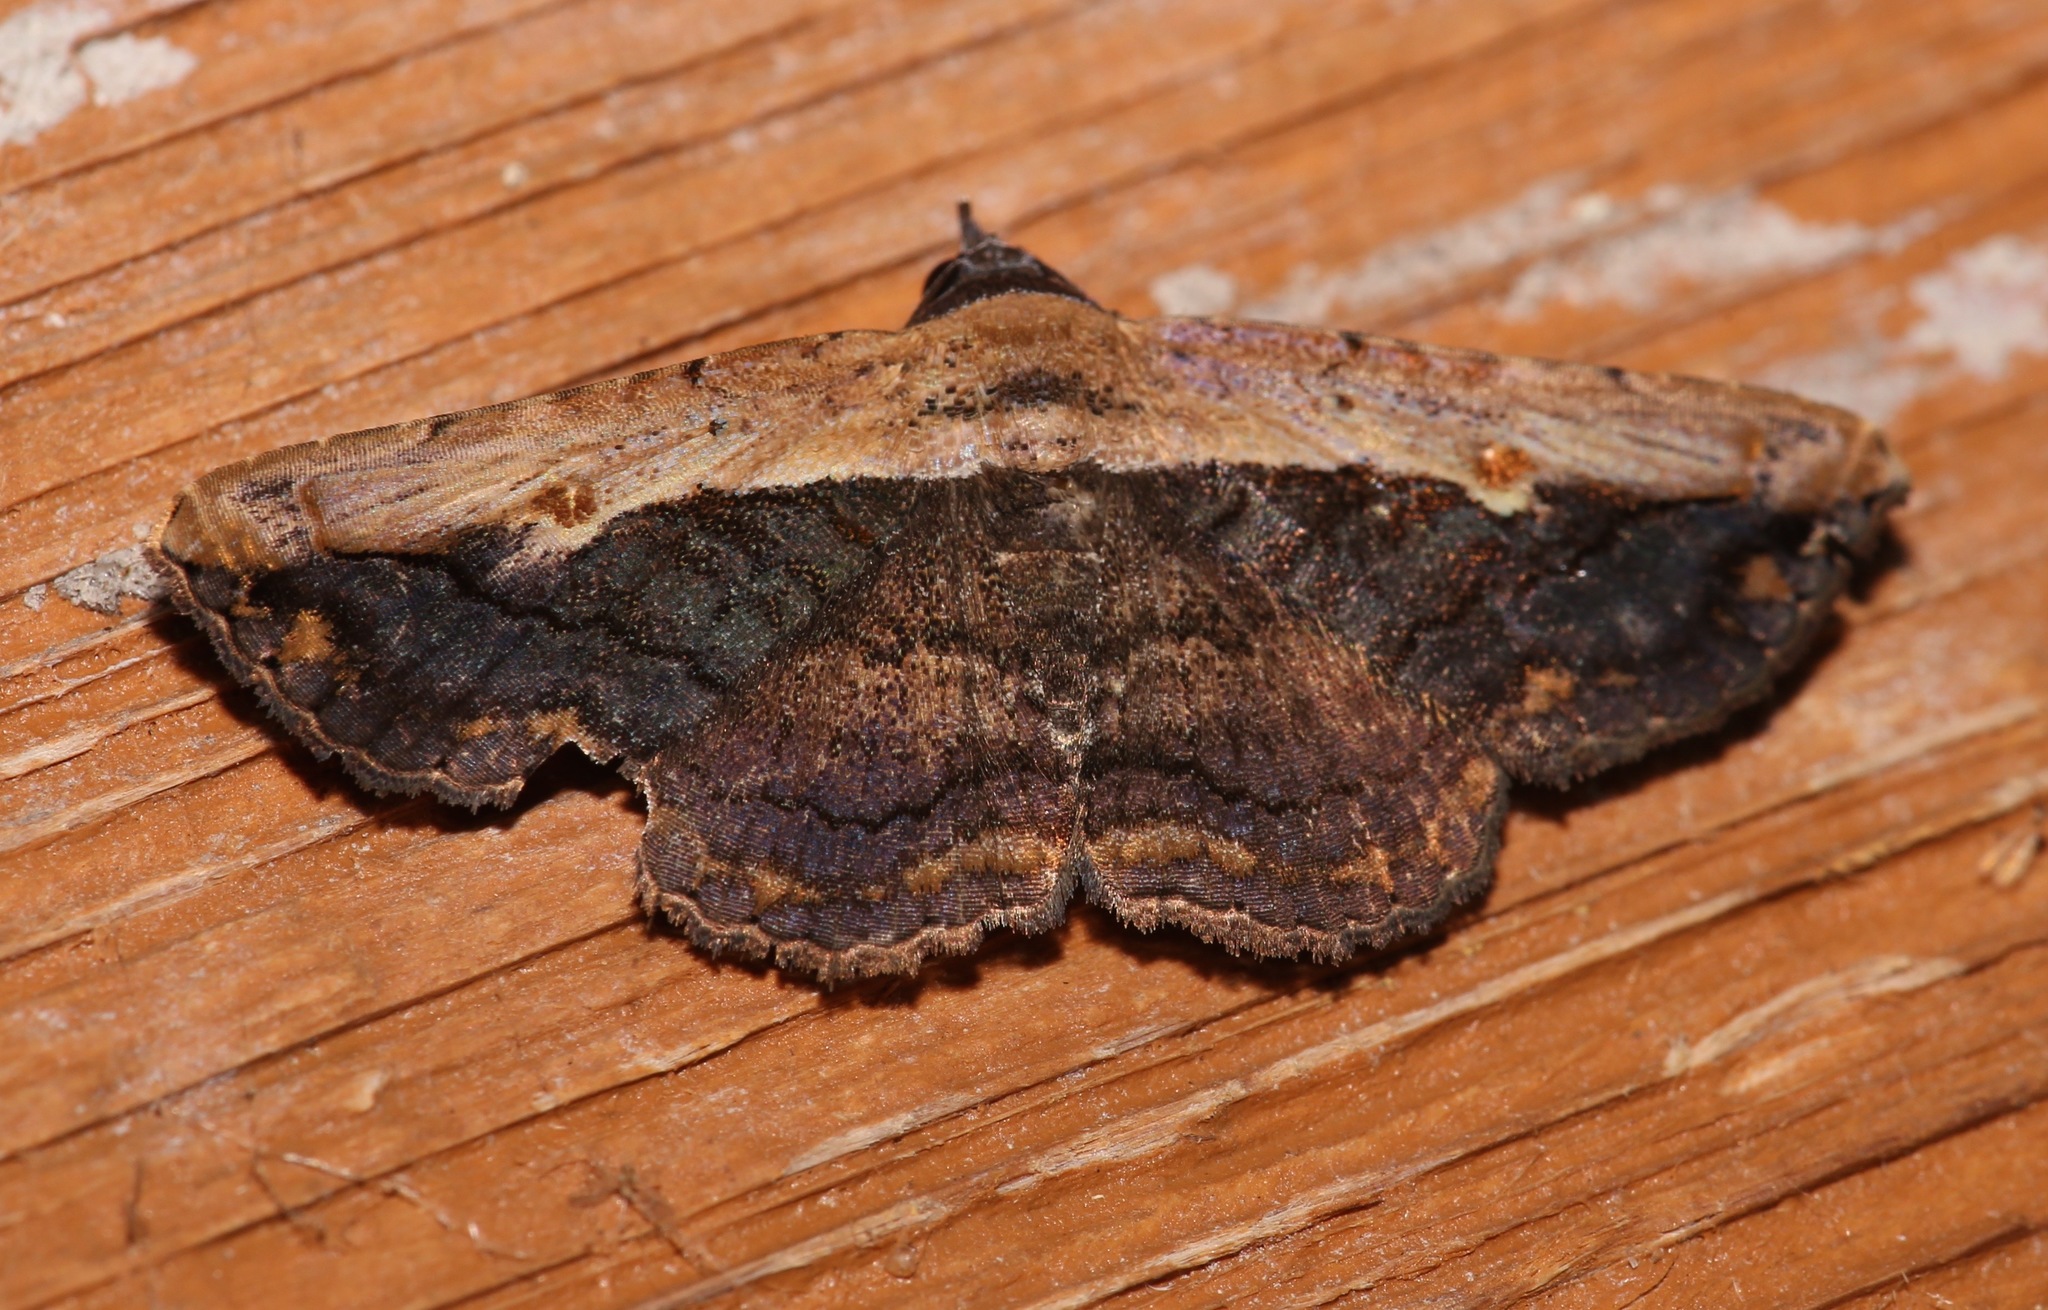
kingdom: Animalia
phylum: Arthropoda
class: Insecta
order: Lepidoptera
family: Erebidae
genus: Selenisa
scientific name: Selenisa sueroides
